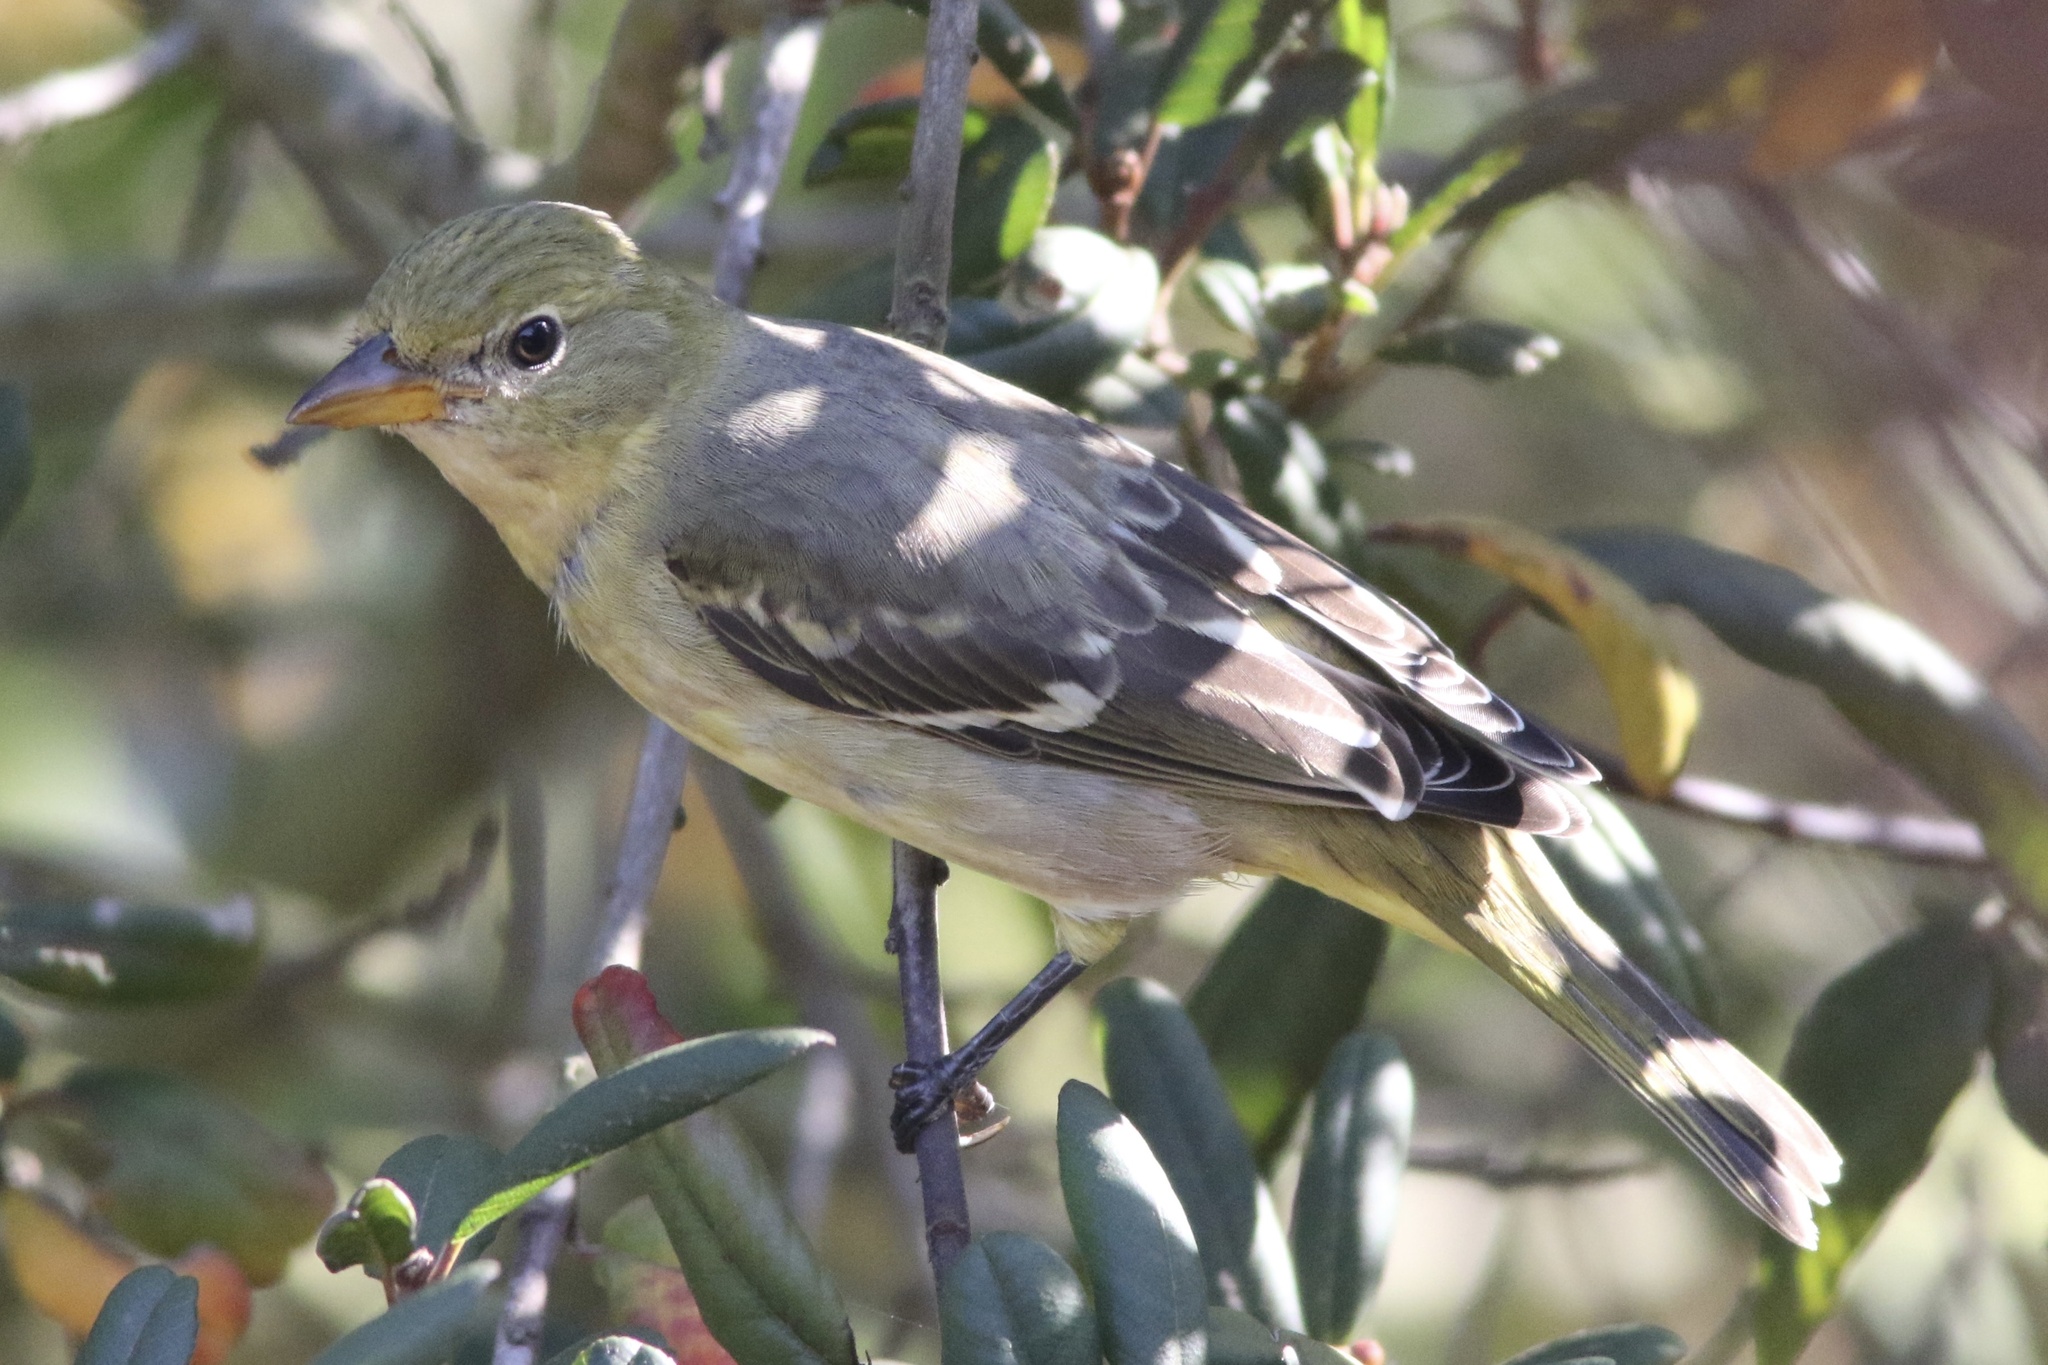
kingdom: Animalia
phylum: Chordata
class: Aves
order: Passeriformes
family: Cardinalidae
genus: Piranga
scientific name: Piranga ludoviciana
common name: Western tanager
